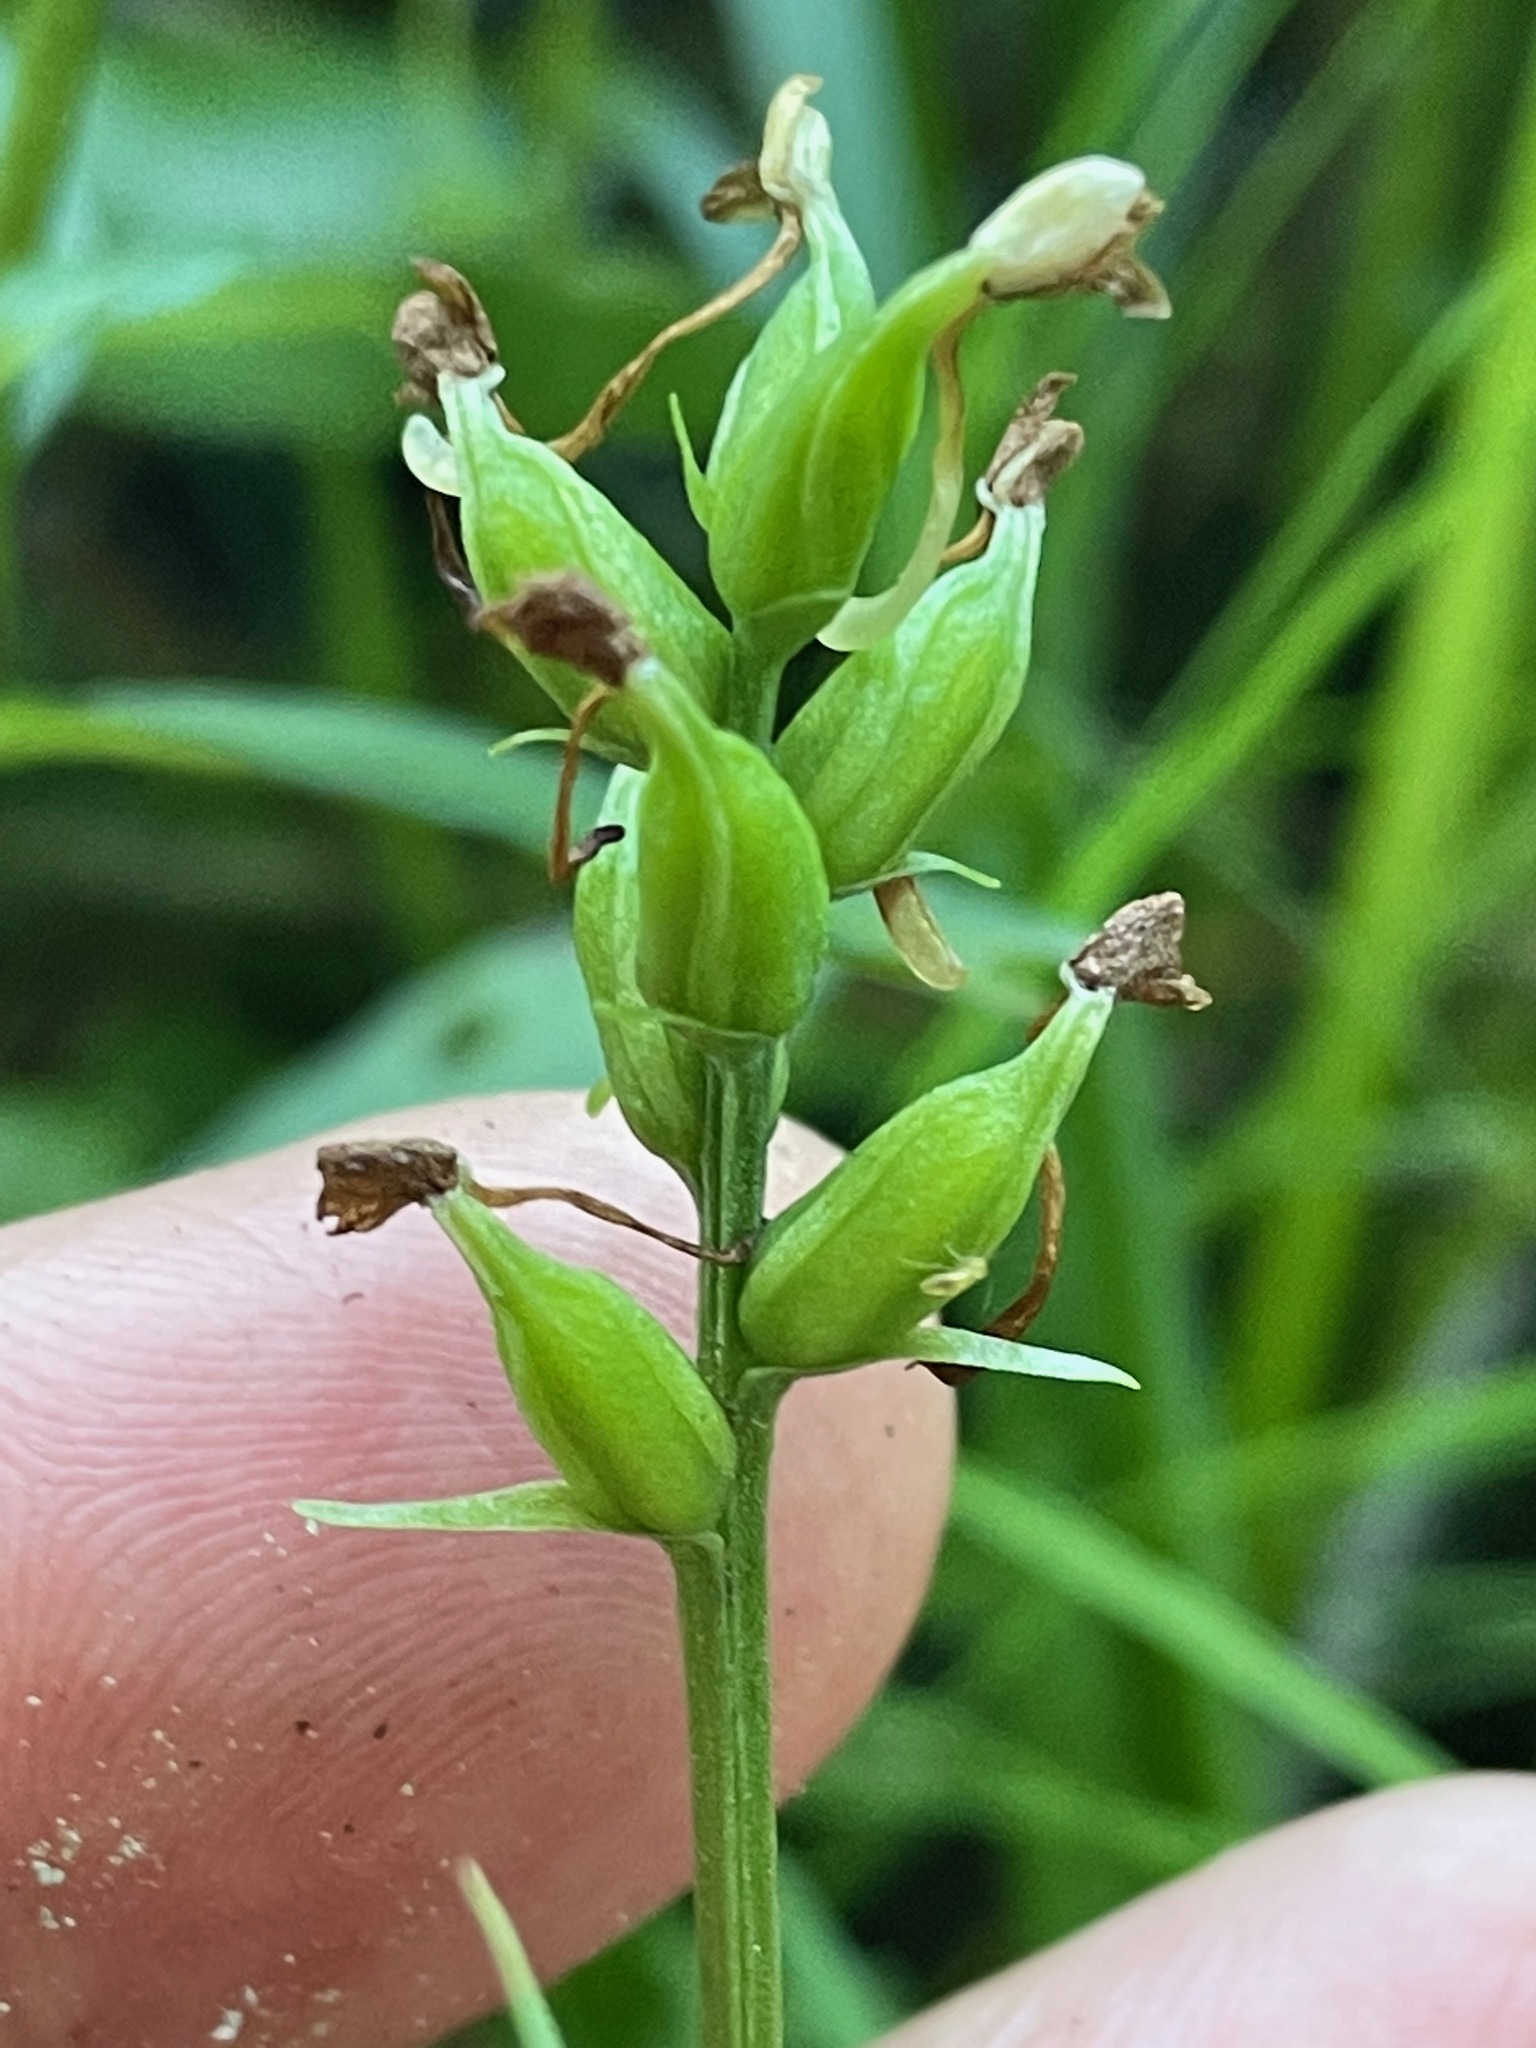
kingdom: Plantae
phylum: Tracheophyta
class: Liliopsida
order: Asparagales
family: Orchidaceae
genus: Platanthera
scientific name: Platanthera clavellata
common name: Club-spur orchid
